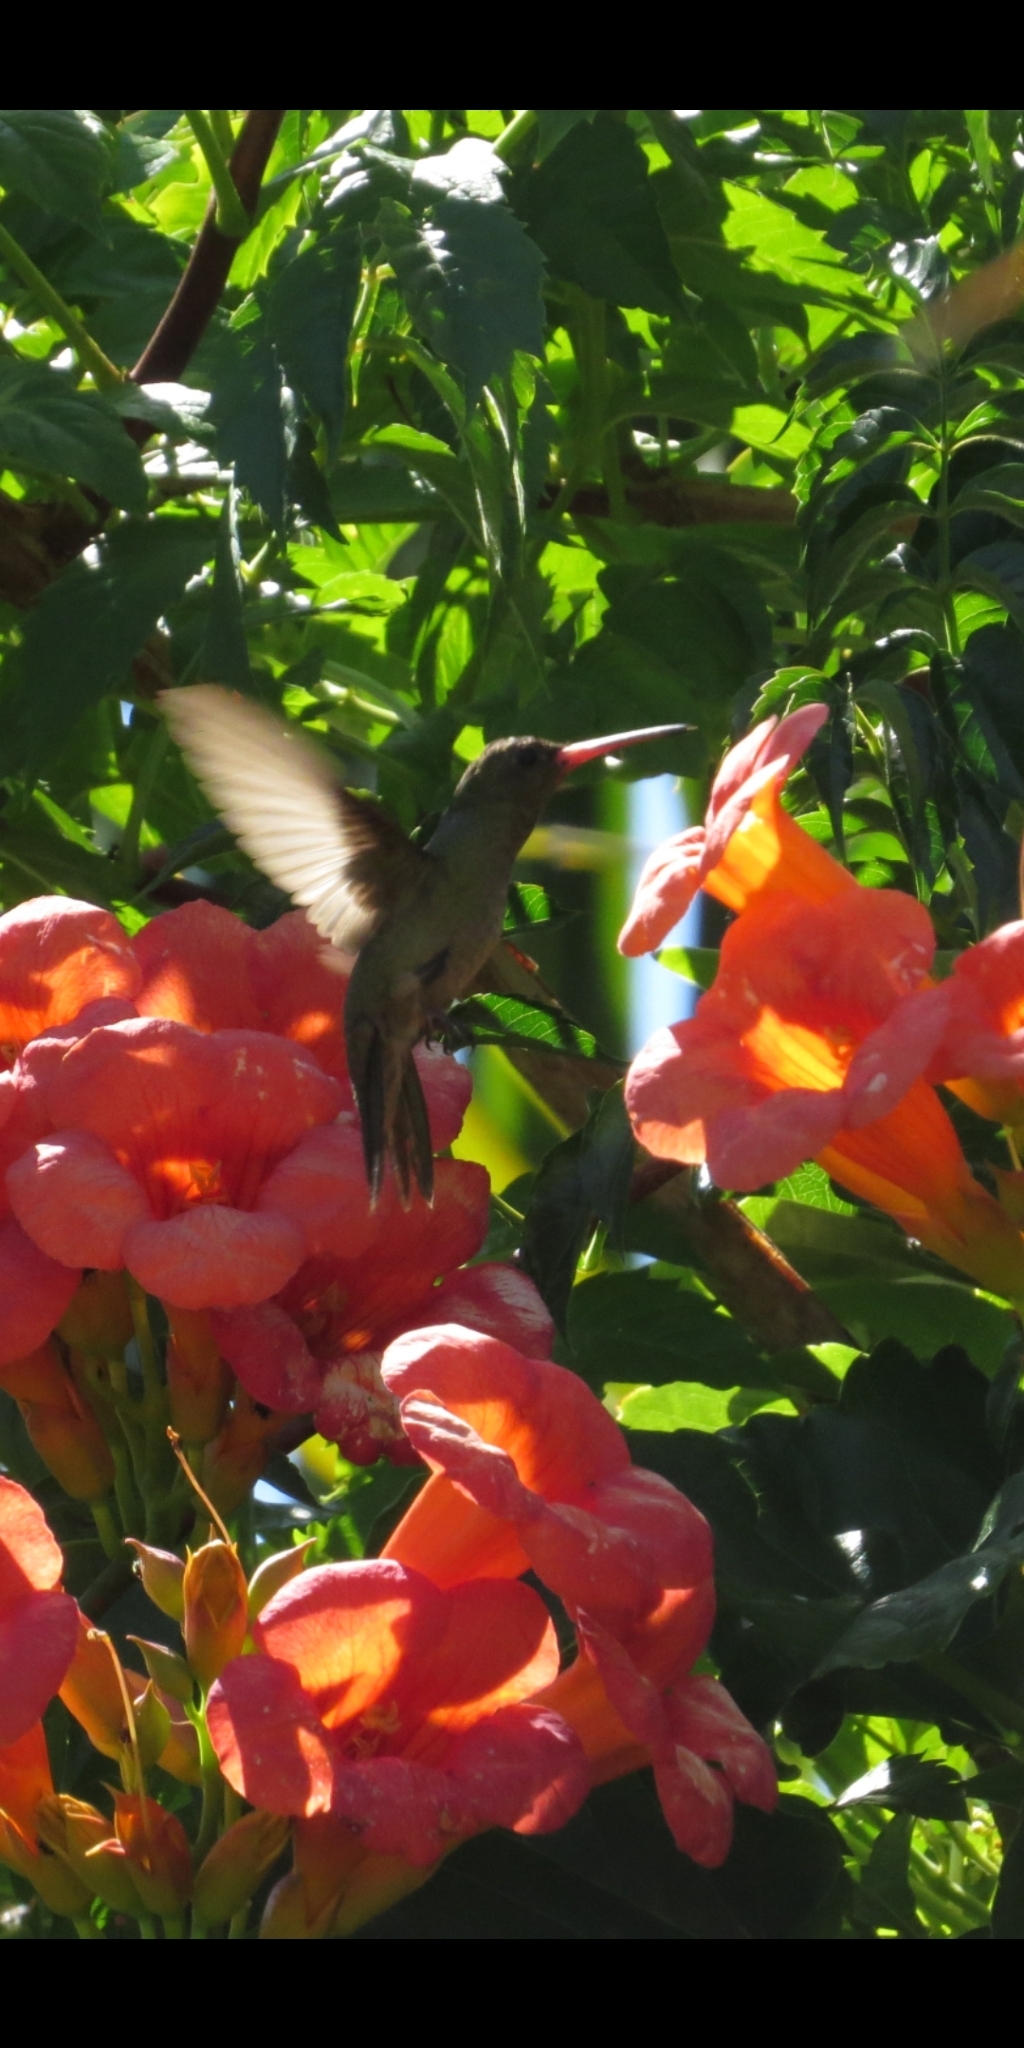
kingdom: Animalia
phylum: Chordata
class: Aves
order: Apodiformes
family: Trochilidae
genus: Hylocharis
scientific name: Hylocharis chrysura
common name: Gilded sapphire
